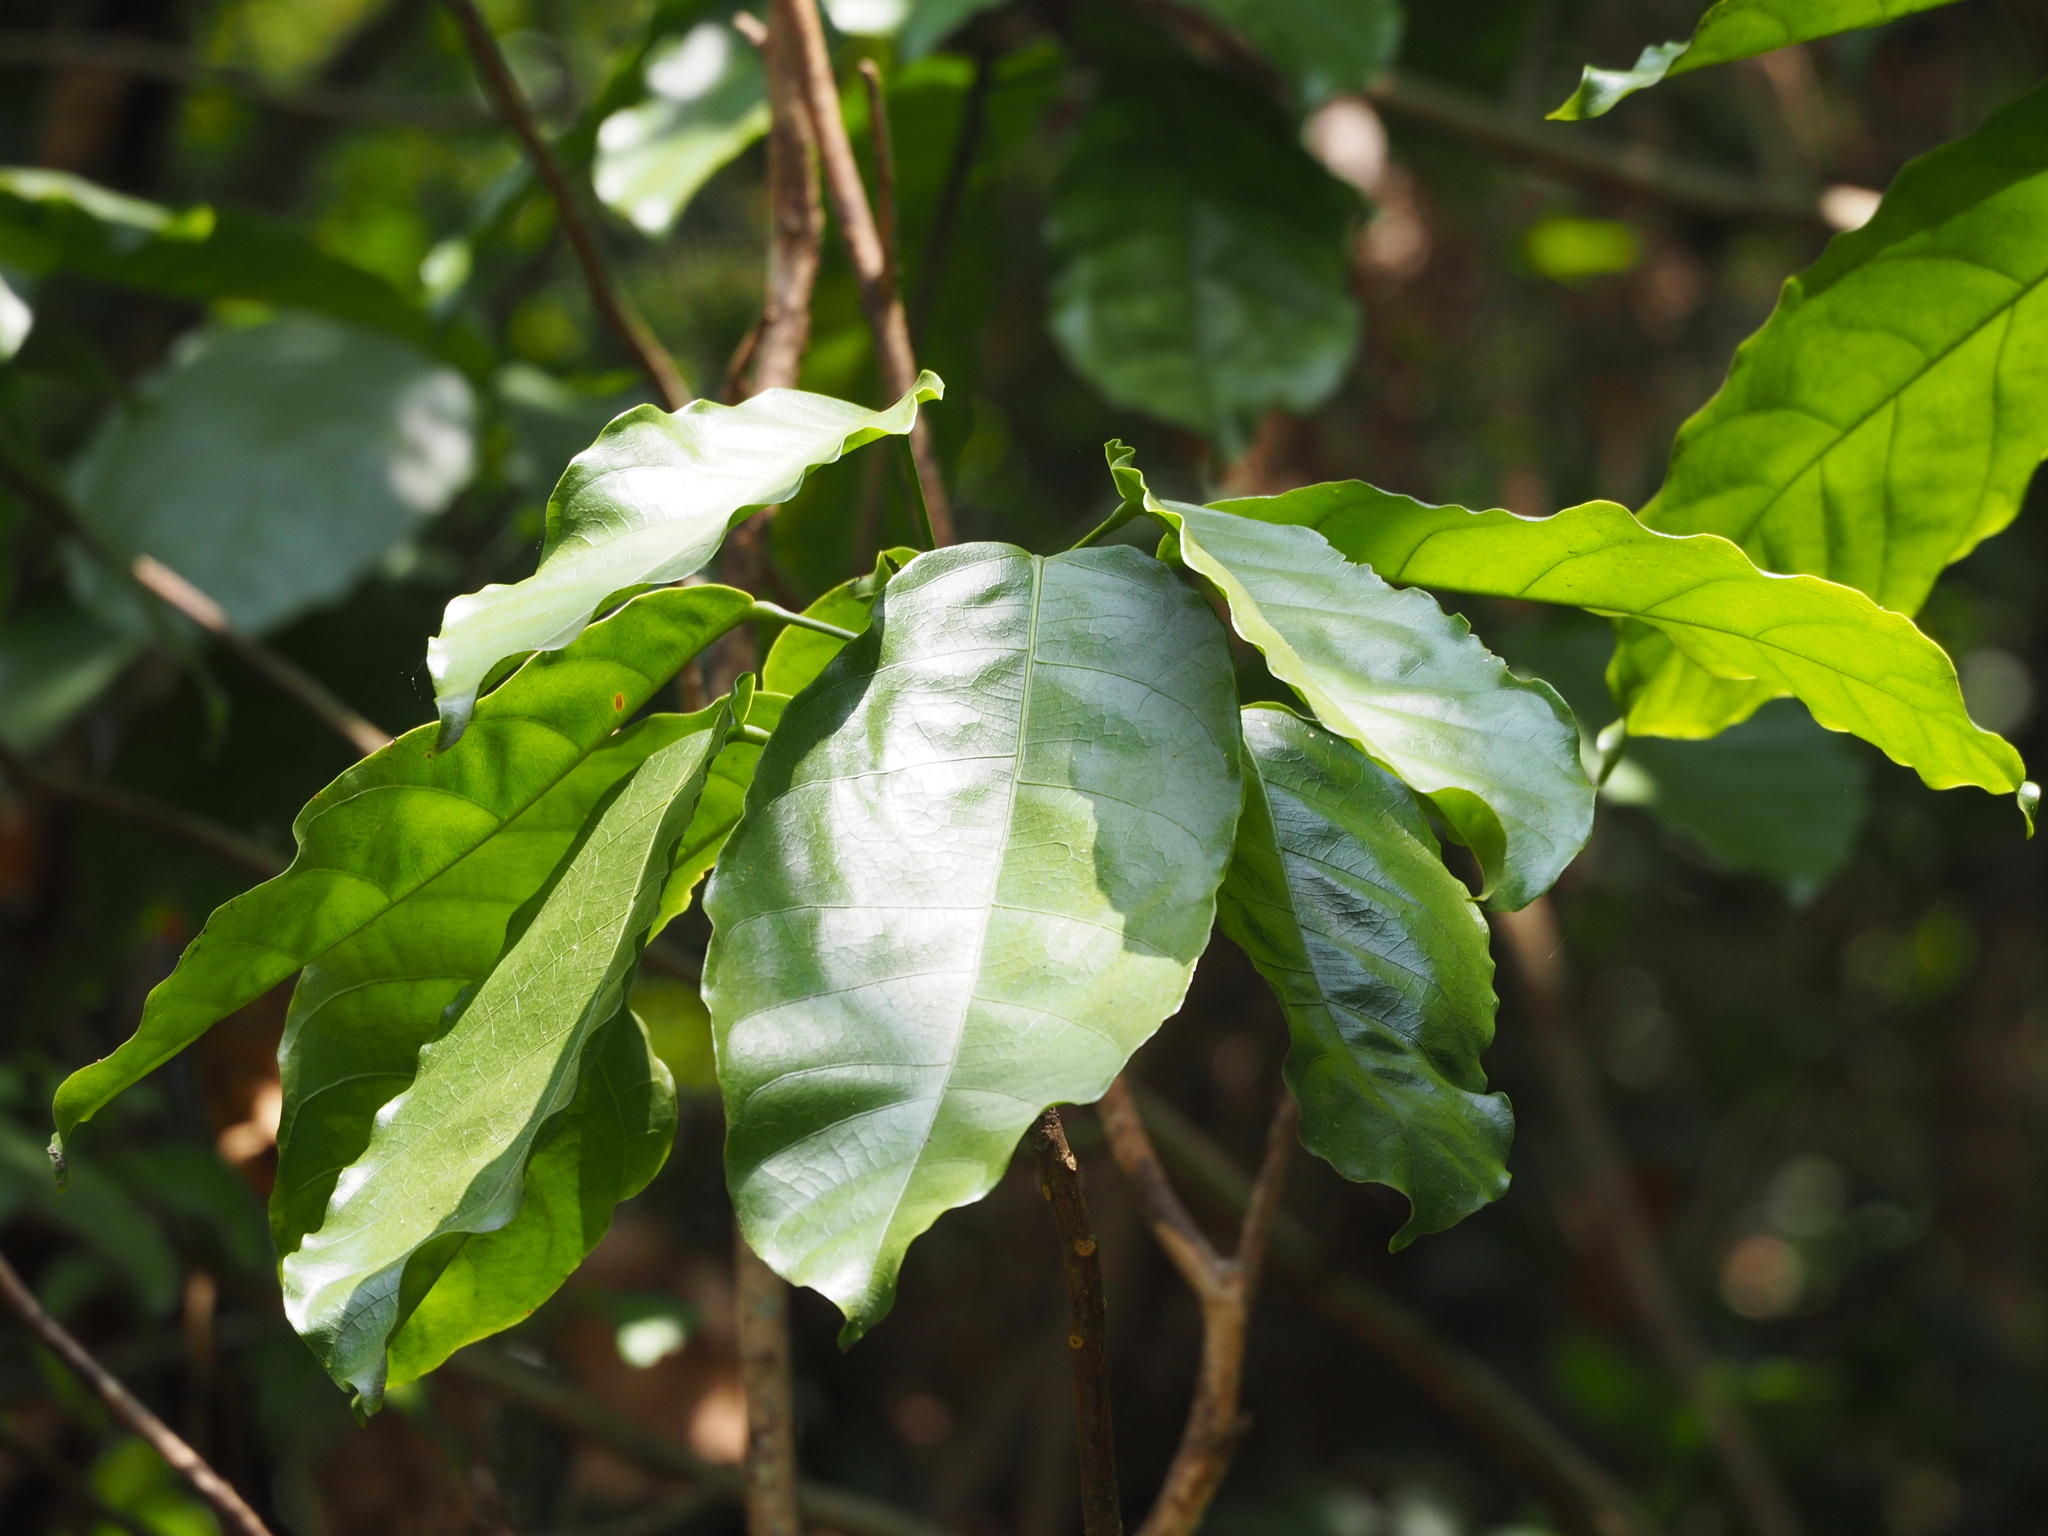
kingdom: Plantae
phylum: Tracheophyta
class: Magnoliopsida
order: Malvales
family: Malvaceae
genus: Sterculia
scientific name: Sterculia monosperma
